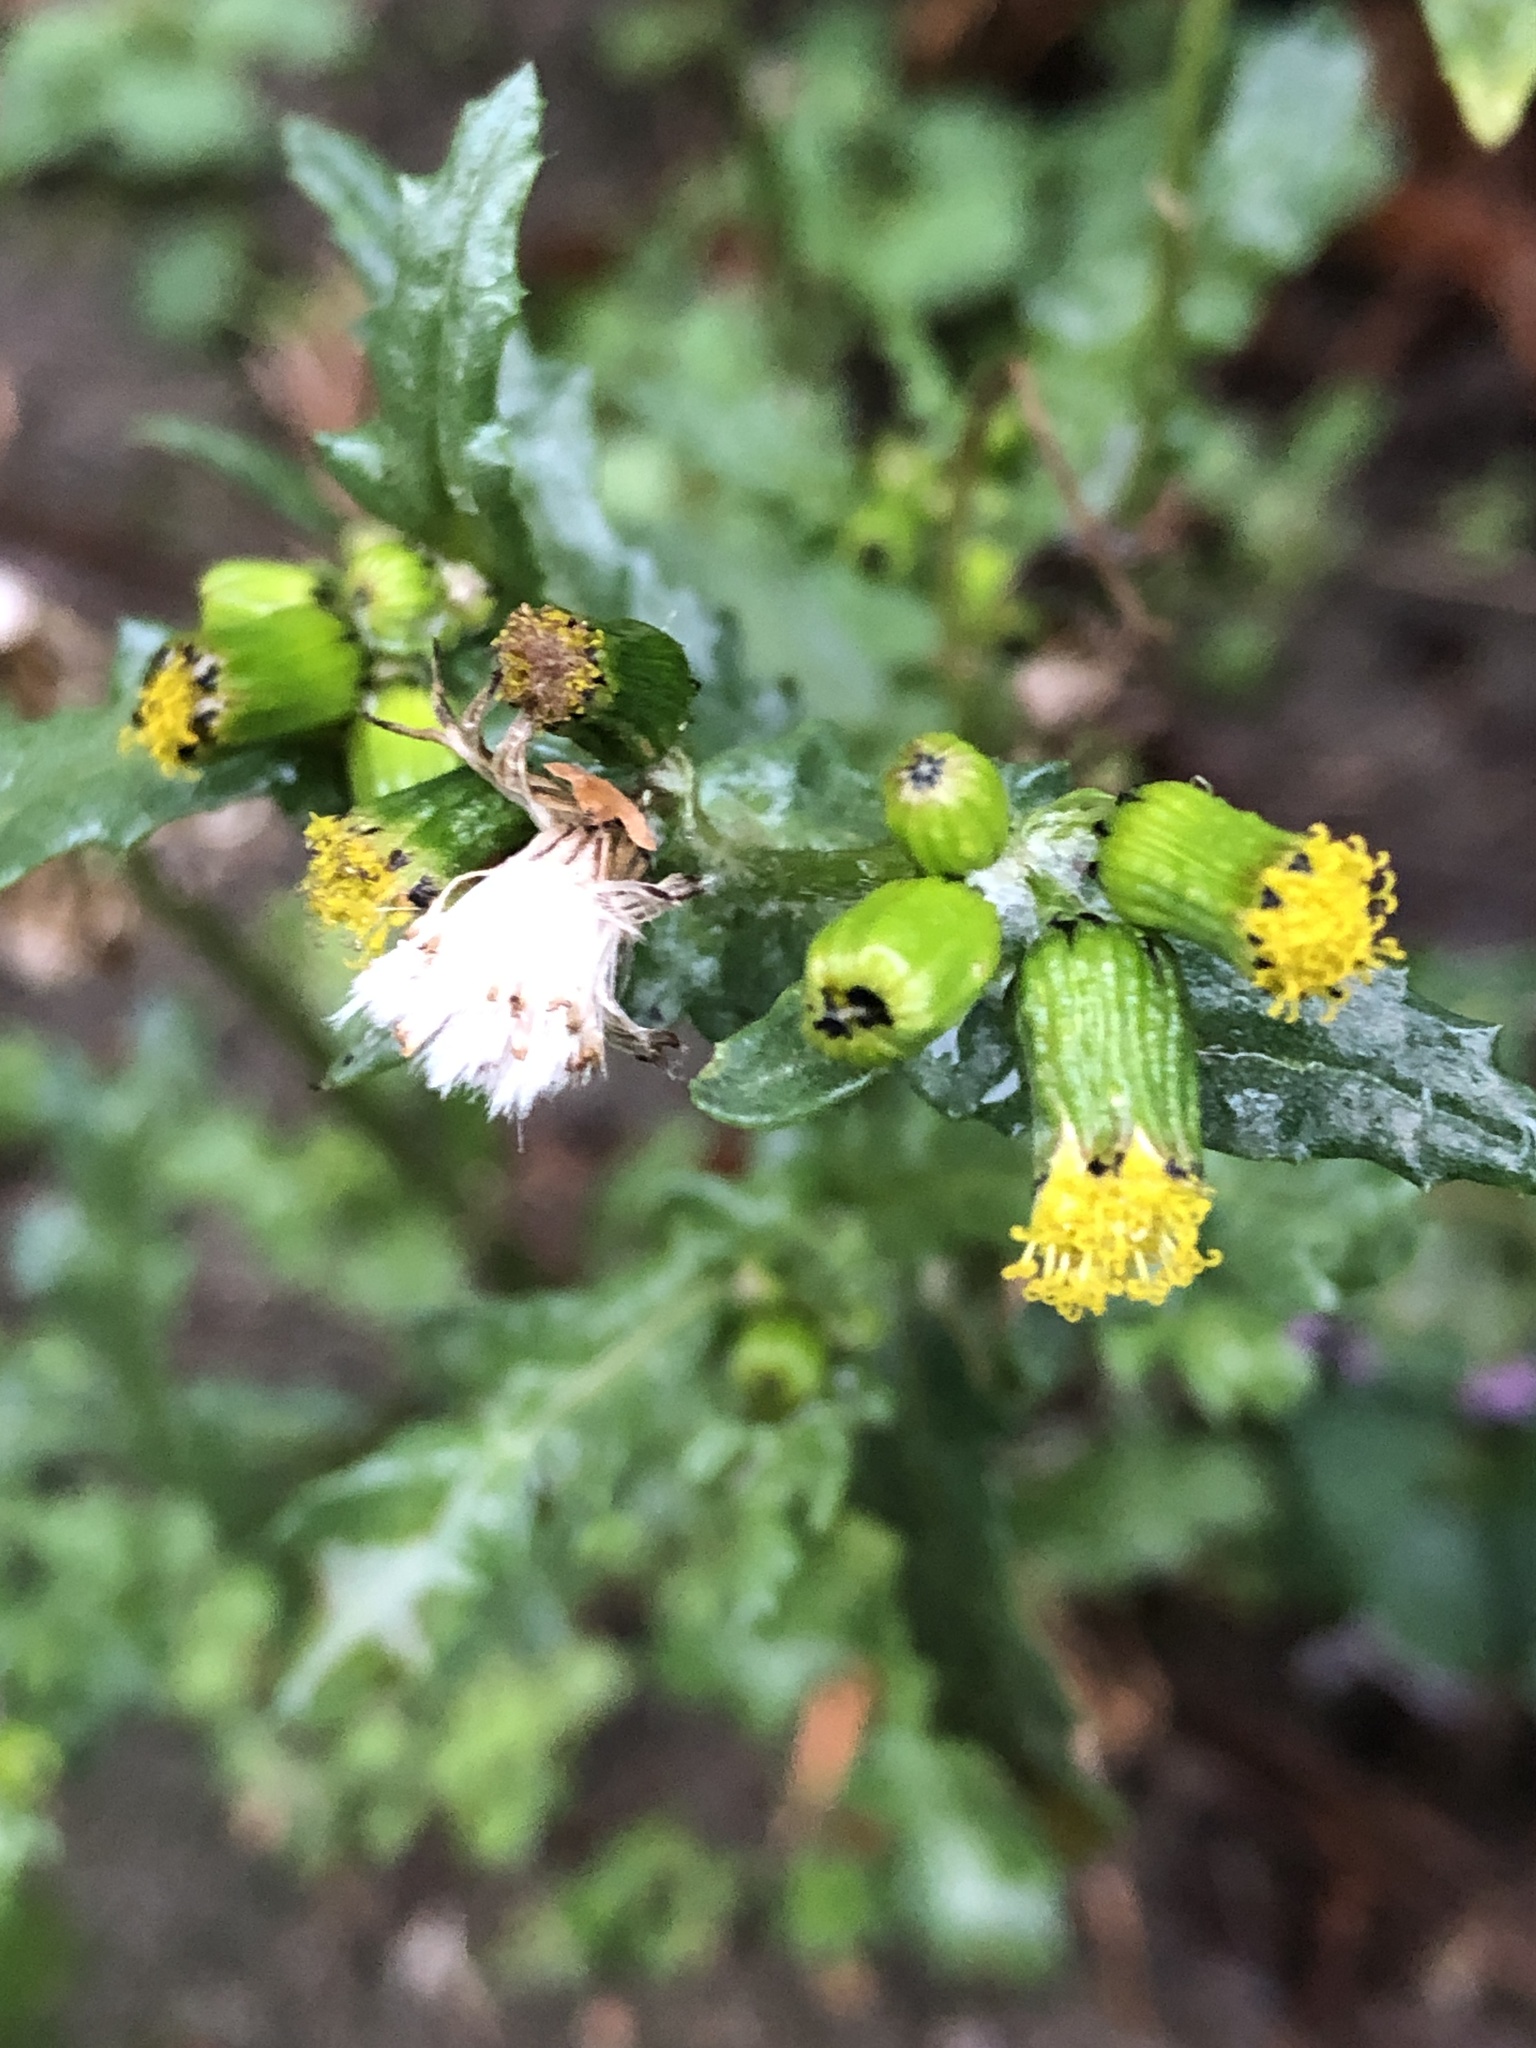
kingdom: Plantae
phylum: Tracheophyta
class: Magnoliopsida
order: Asterales
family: Asteraceae
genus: Senecio
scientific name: Senecio vulgaris
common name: Old-man-in-the-spring
